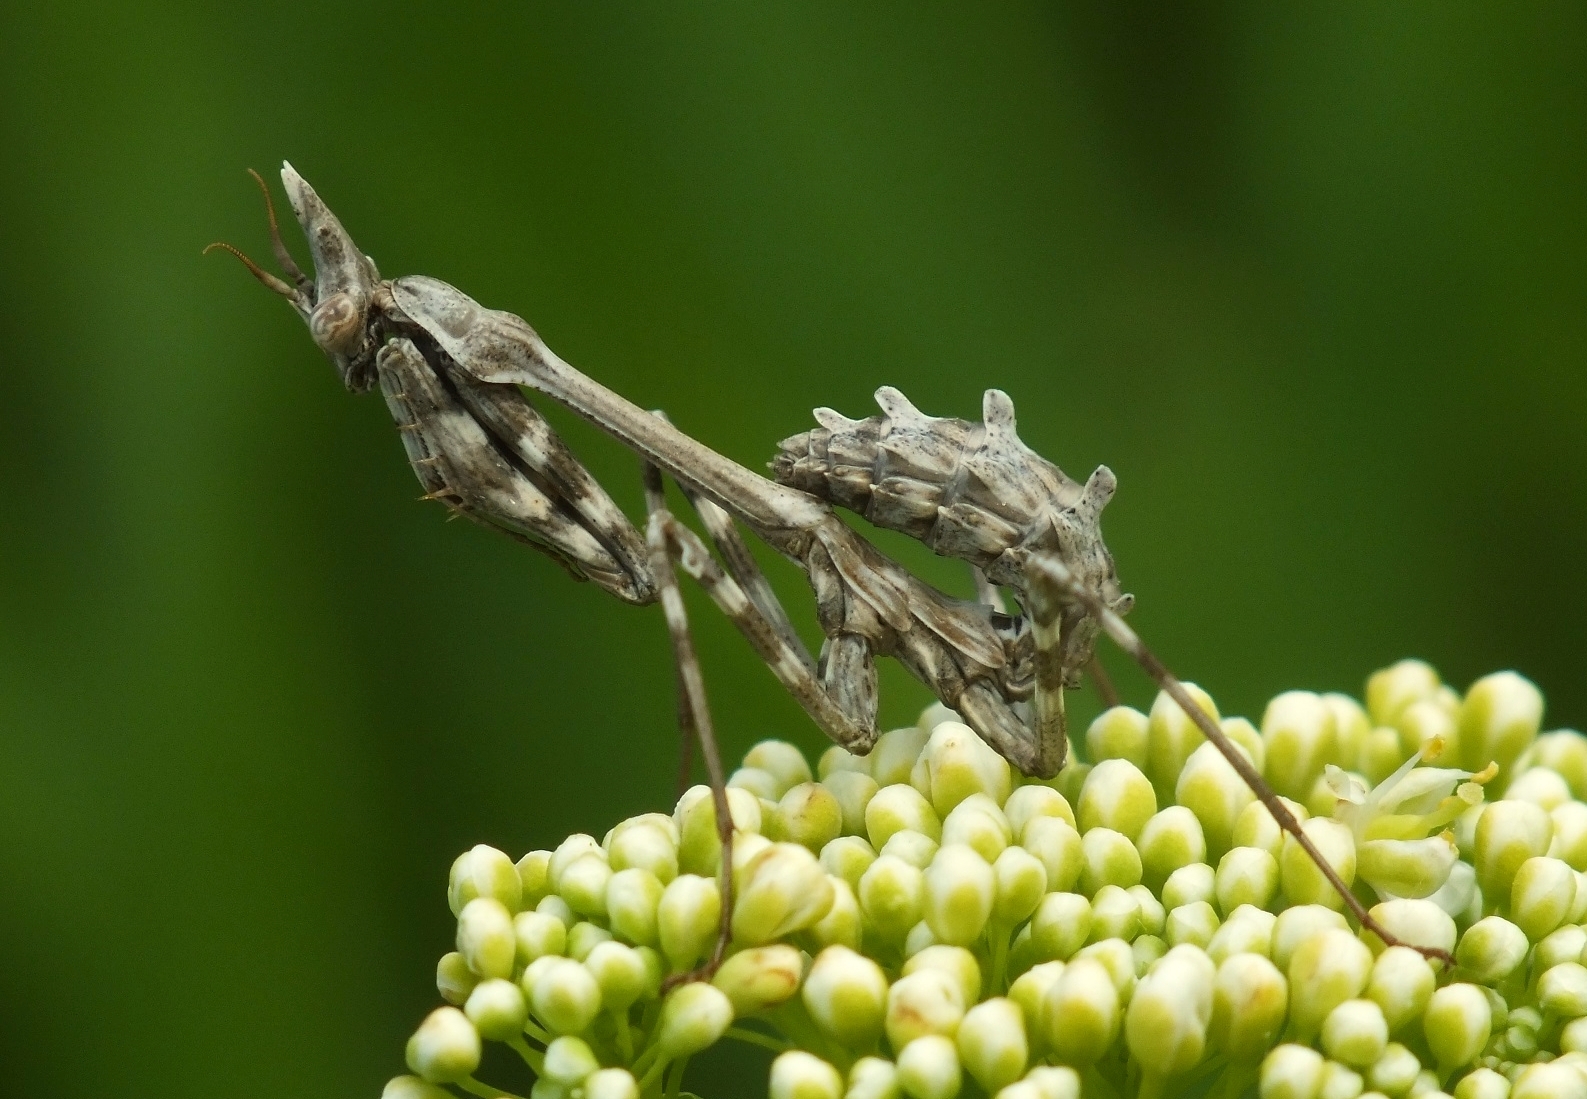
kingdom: Animalia
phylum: Arthropoda
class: Insecta
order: Mantodea
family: Empusidae
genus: Empusa
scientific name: Empusa pennicornis
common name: Conehead mantis
